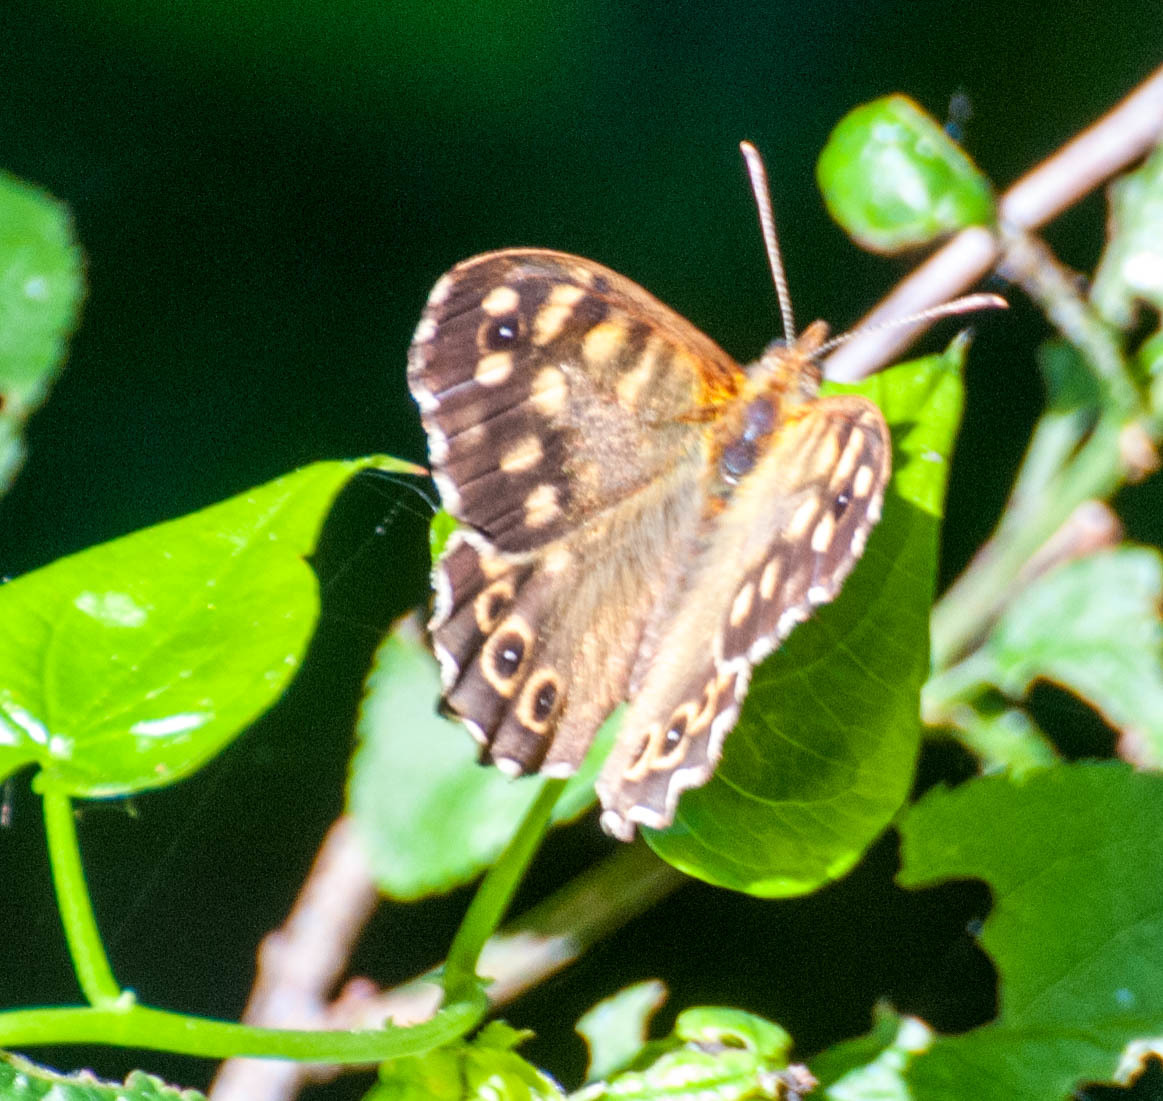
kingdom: Animalia
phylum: Arthropoda
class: Insecta
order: Lepidoptera
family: Nymphalidae
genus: Pararge
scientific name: Pararge aegeria
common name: Speckled wood
